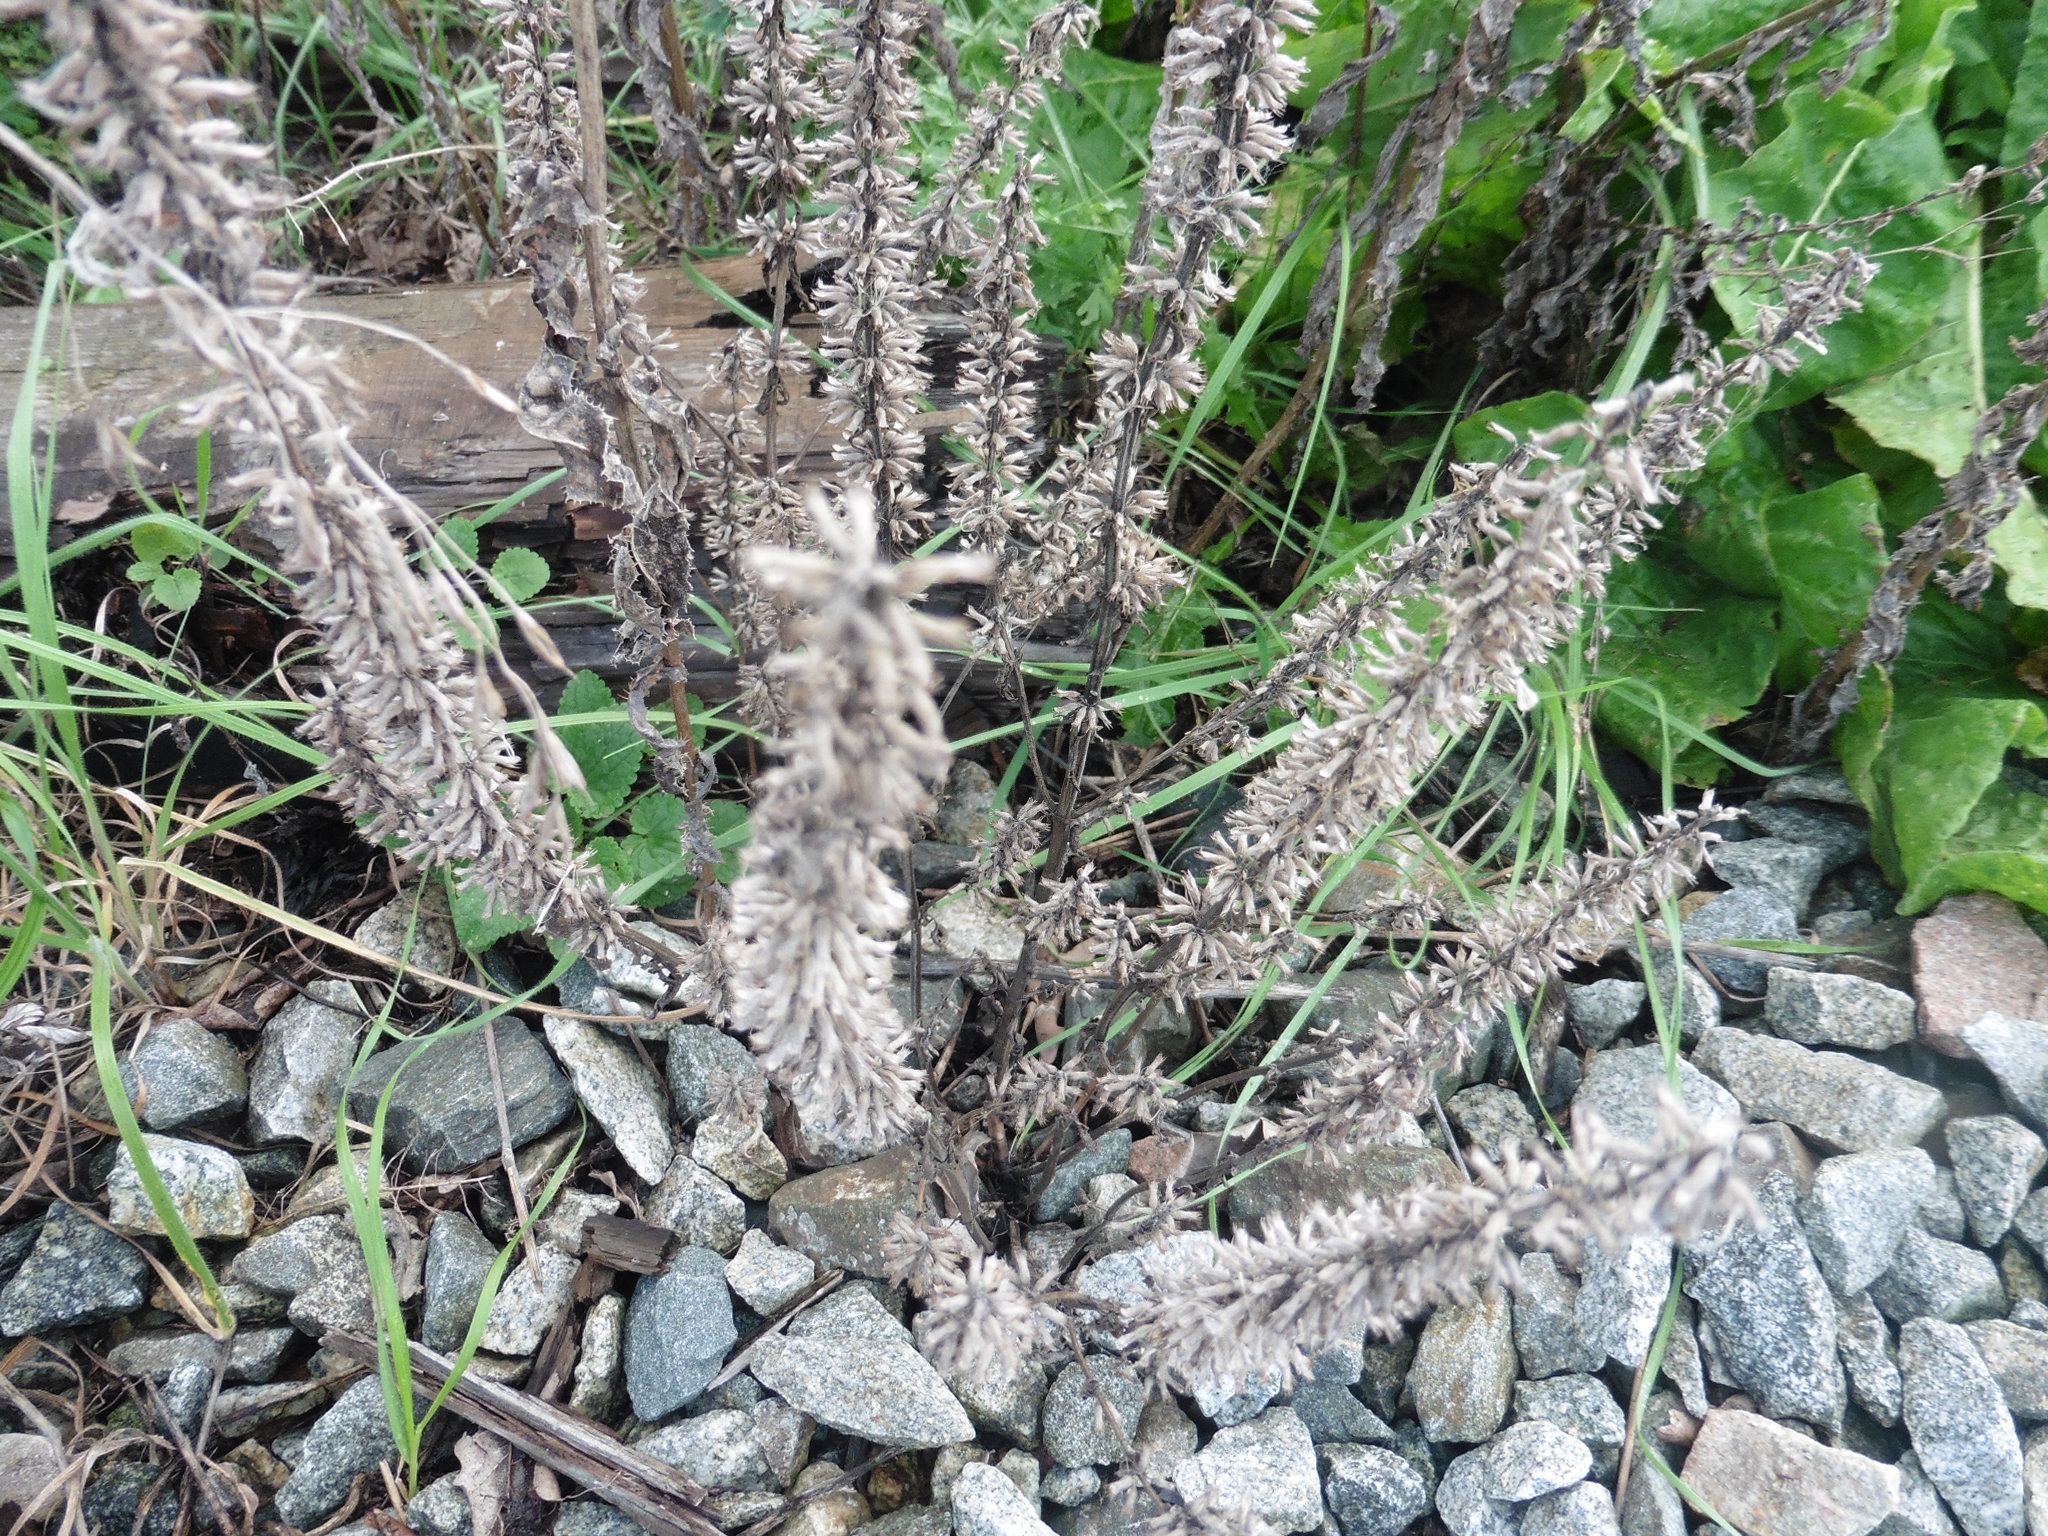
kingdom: Plantae
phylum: Tracheophyta
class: Magnoliopsida
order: Lamiales
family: Lamiaceae
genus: Dracocephalum
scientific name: Dracocephalum thymiflorum
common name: Thymeleaf dragonhead
